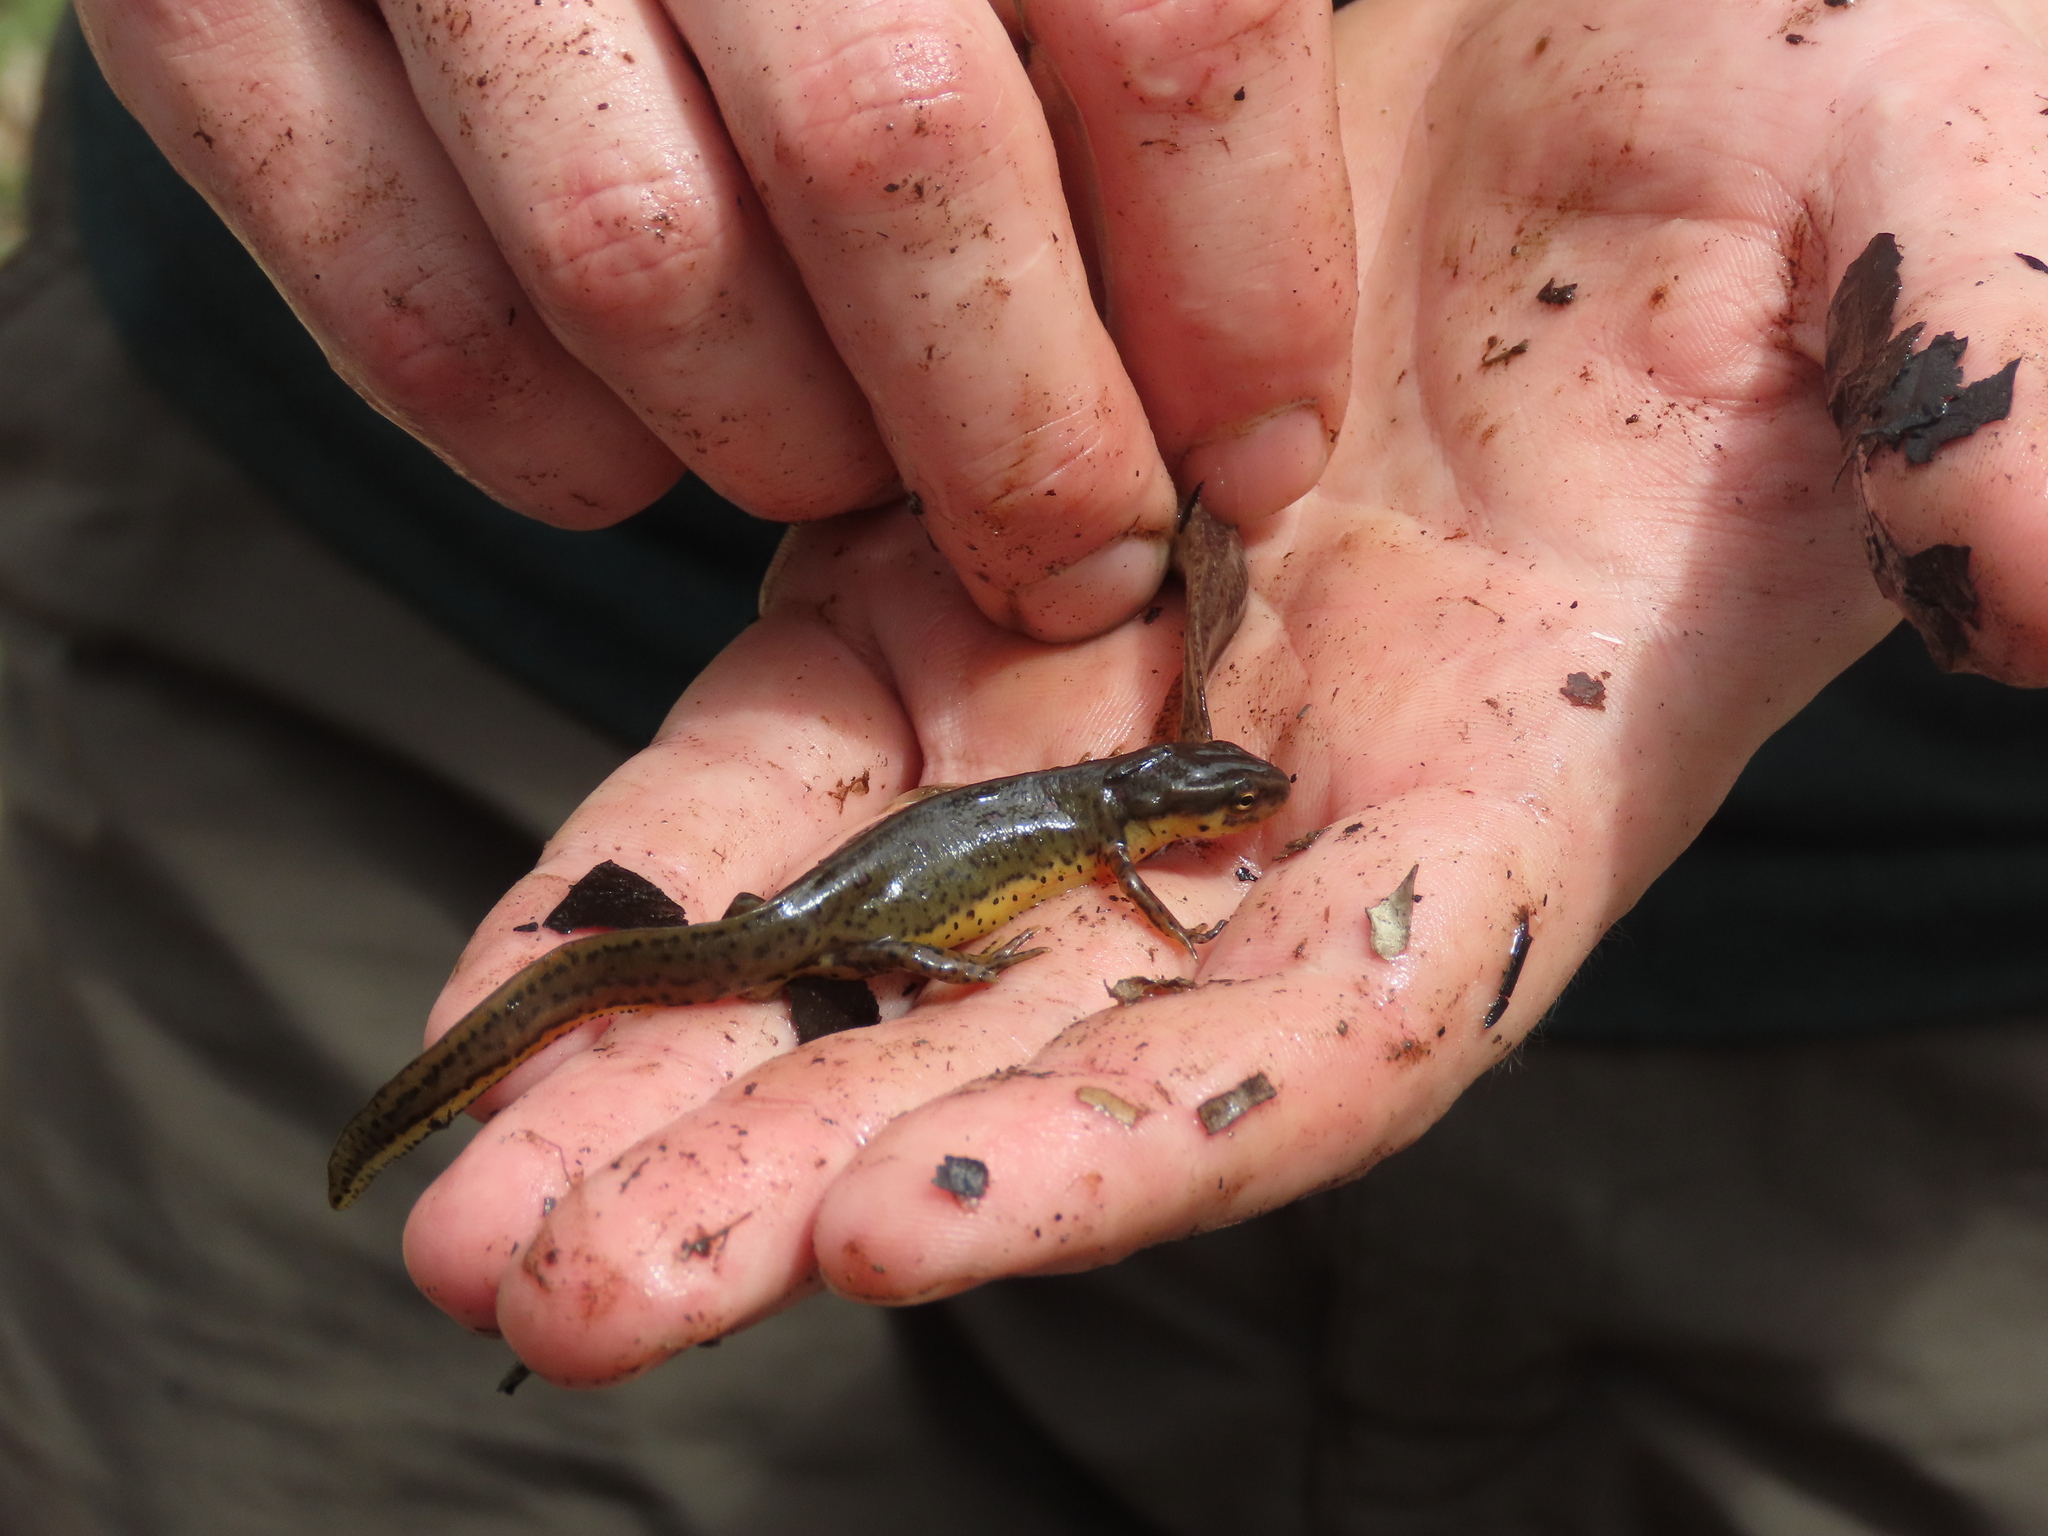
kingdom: Animalia
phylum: Chordata
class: Amphibia
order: Caudata
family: Salamandridae
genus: Notophthalmus
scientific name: Notophthalmus viridescens
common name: Eastern newt
